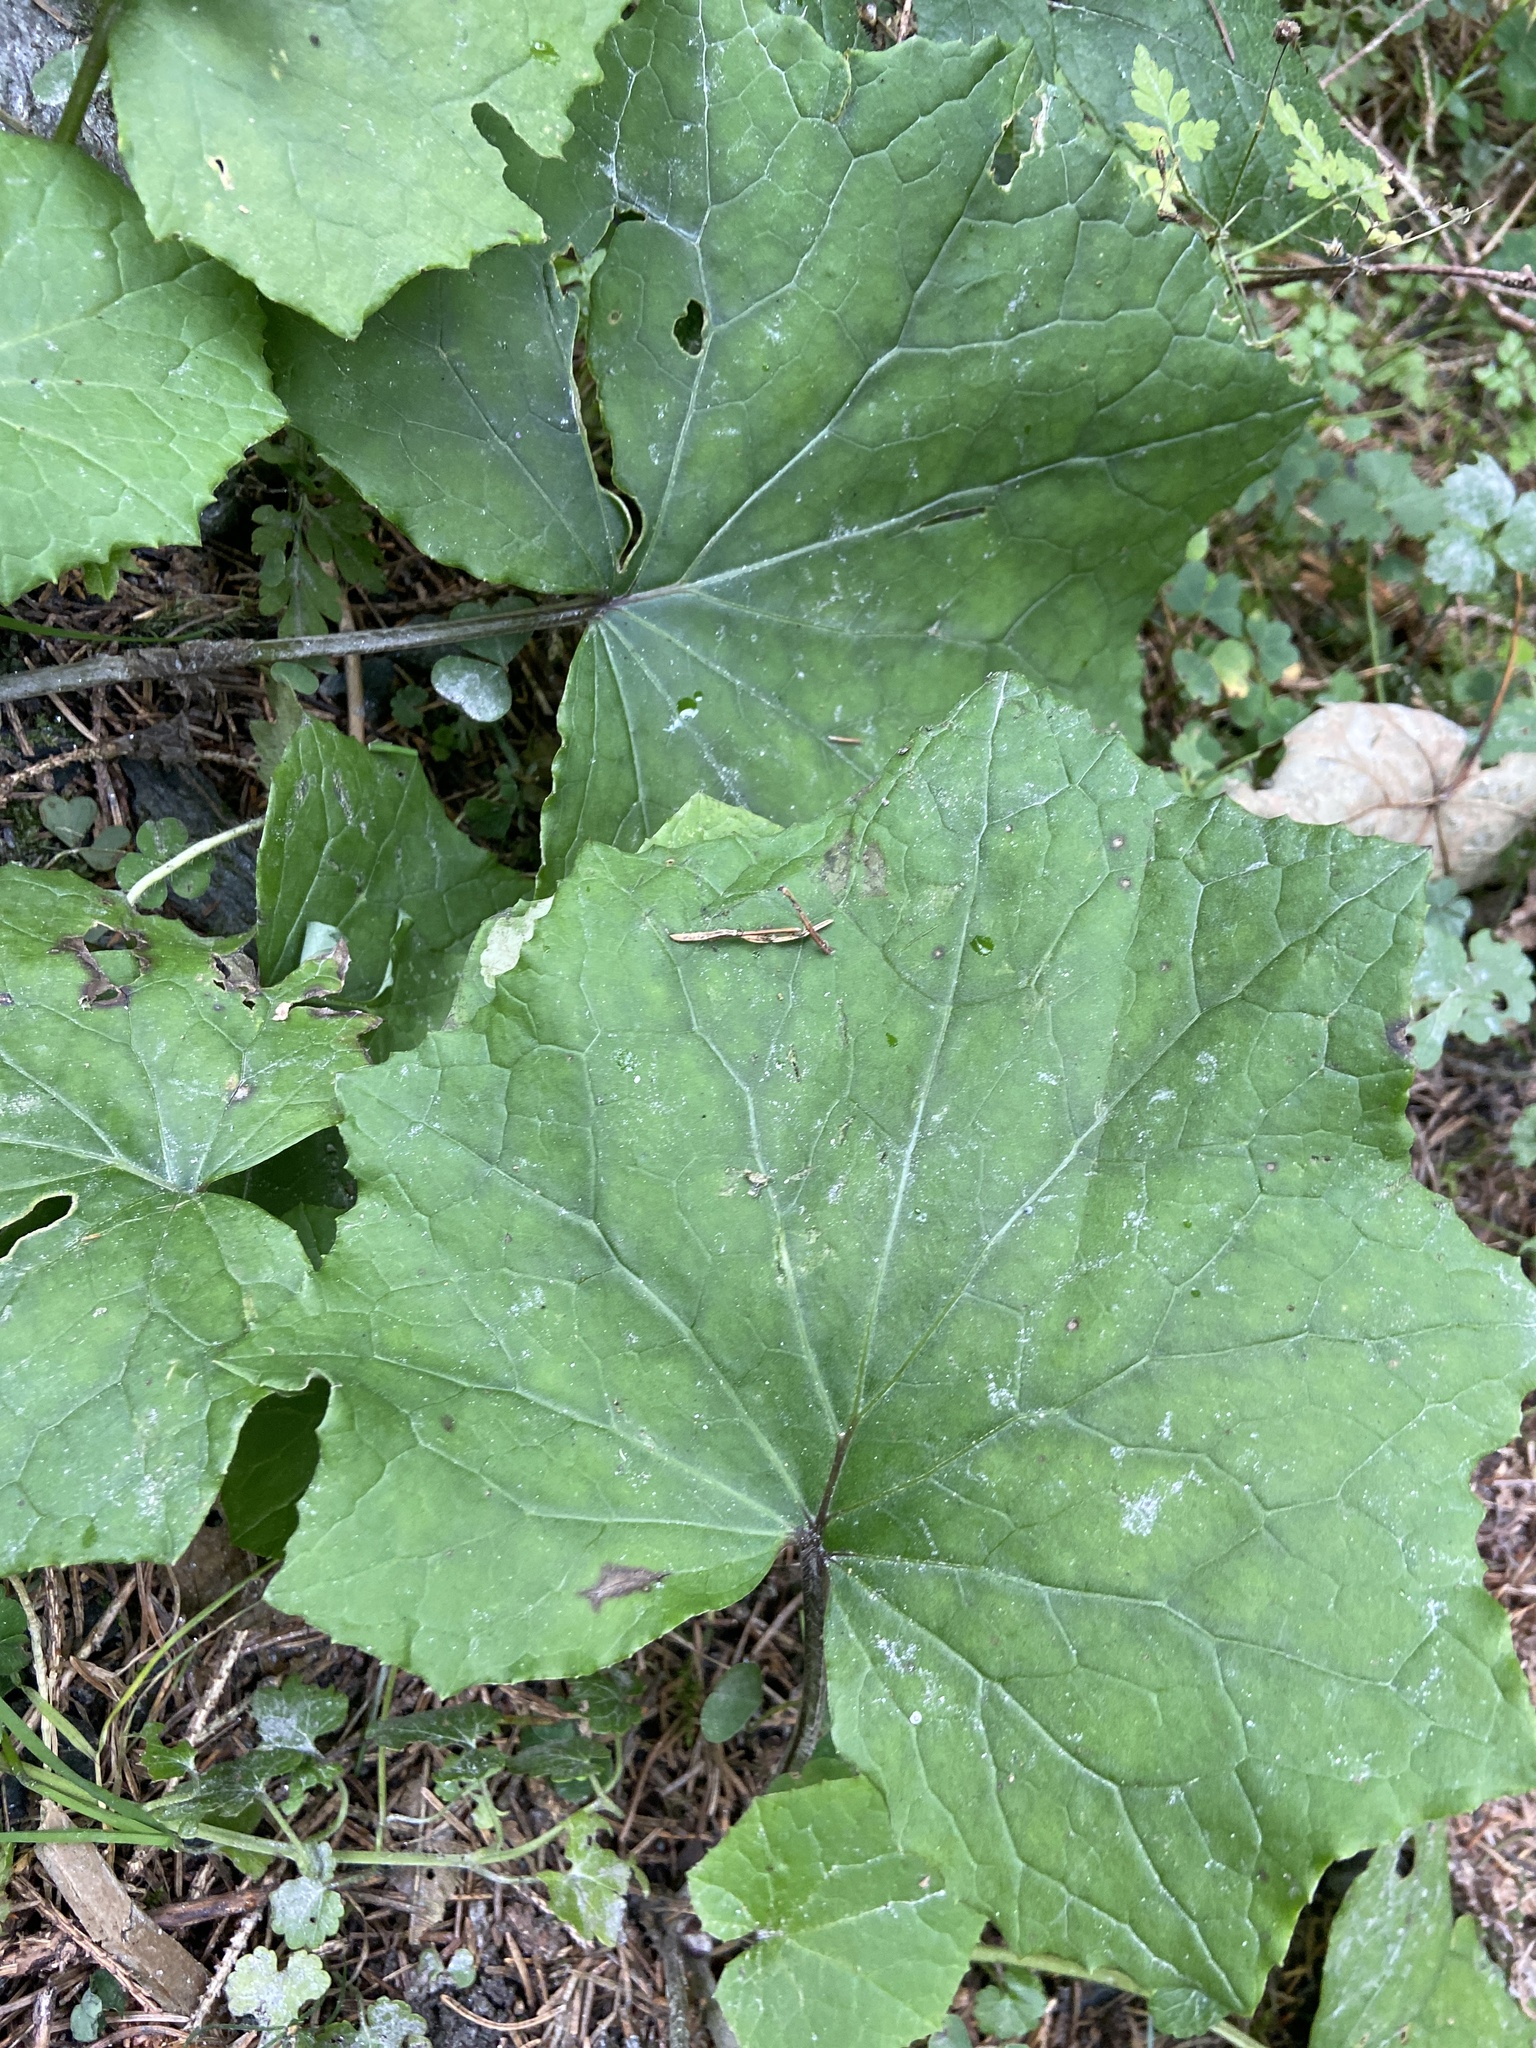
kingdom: Plantae
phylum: Tracheophyta
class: Magnoliopsida
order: Asterales
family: Asteraceae
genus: Tussilago
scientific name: Tussilago farfara
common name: Coltsfoot
